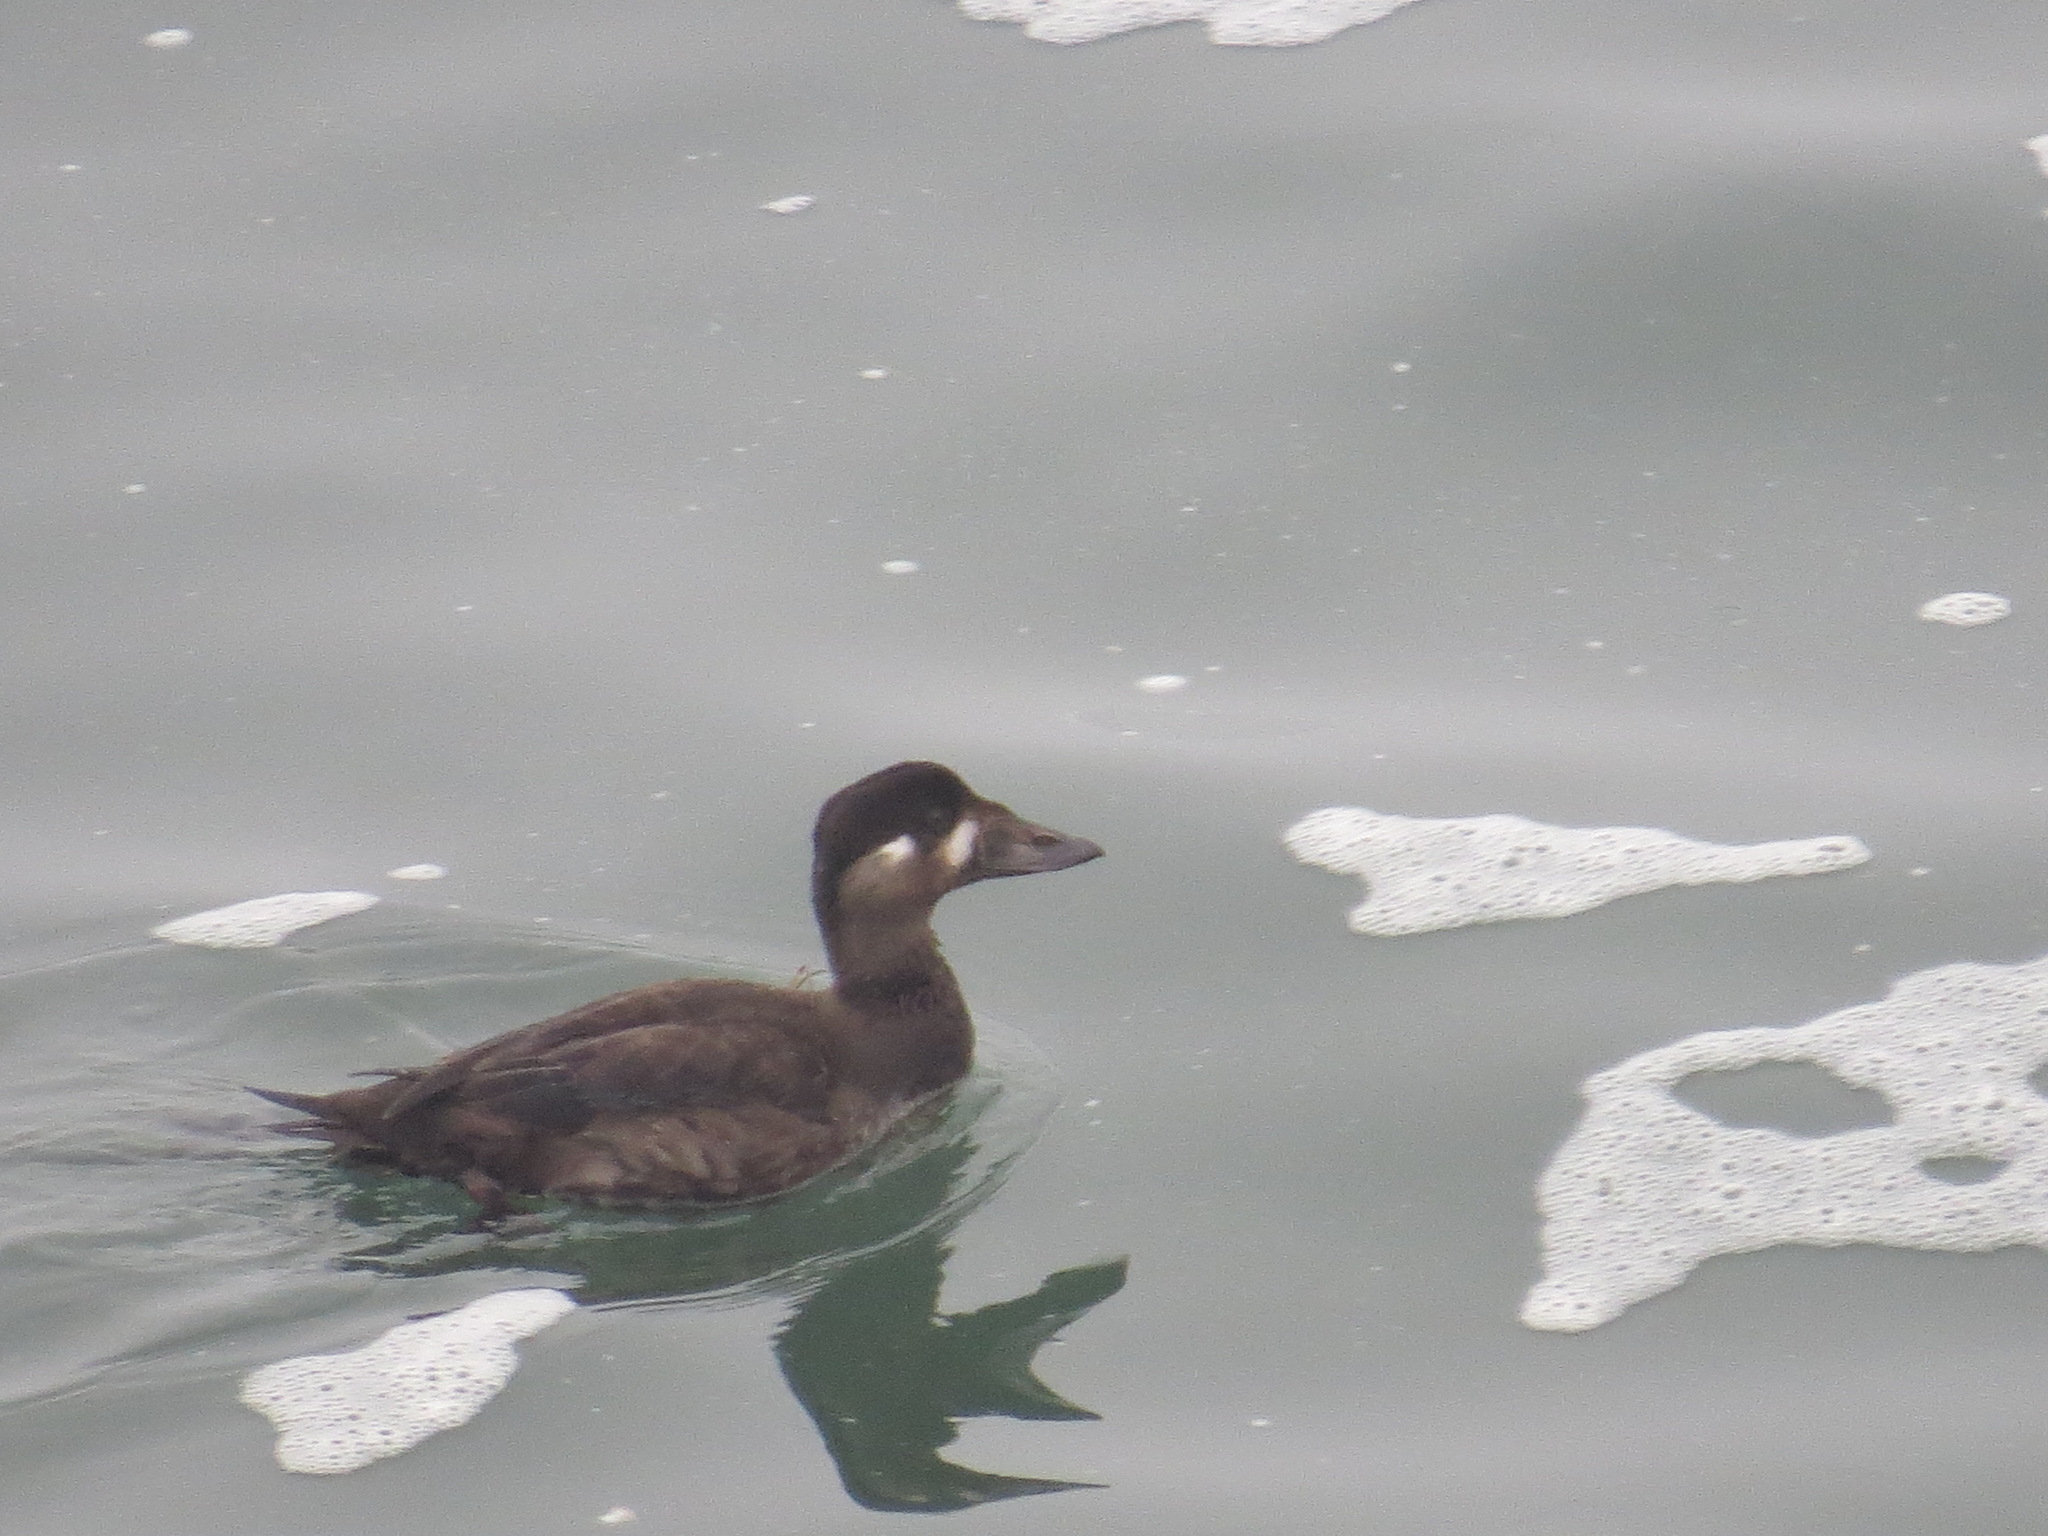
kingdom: Animalia
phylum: Chordata
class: Aves
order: Anseriformes
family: Anatidae
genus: Melanitta
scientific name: Melanitta perspicillata
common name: Surf scoter
